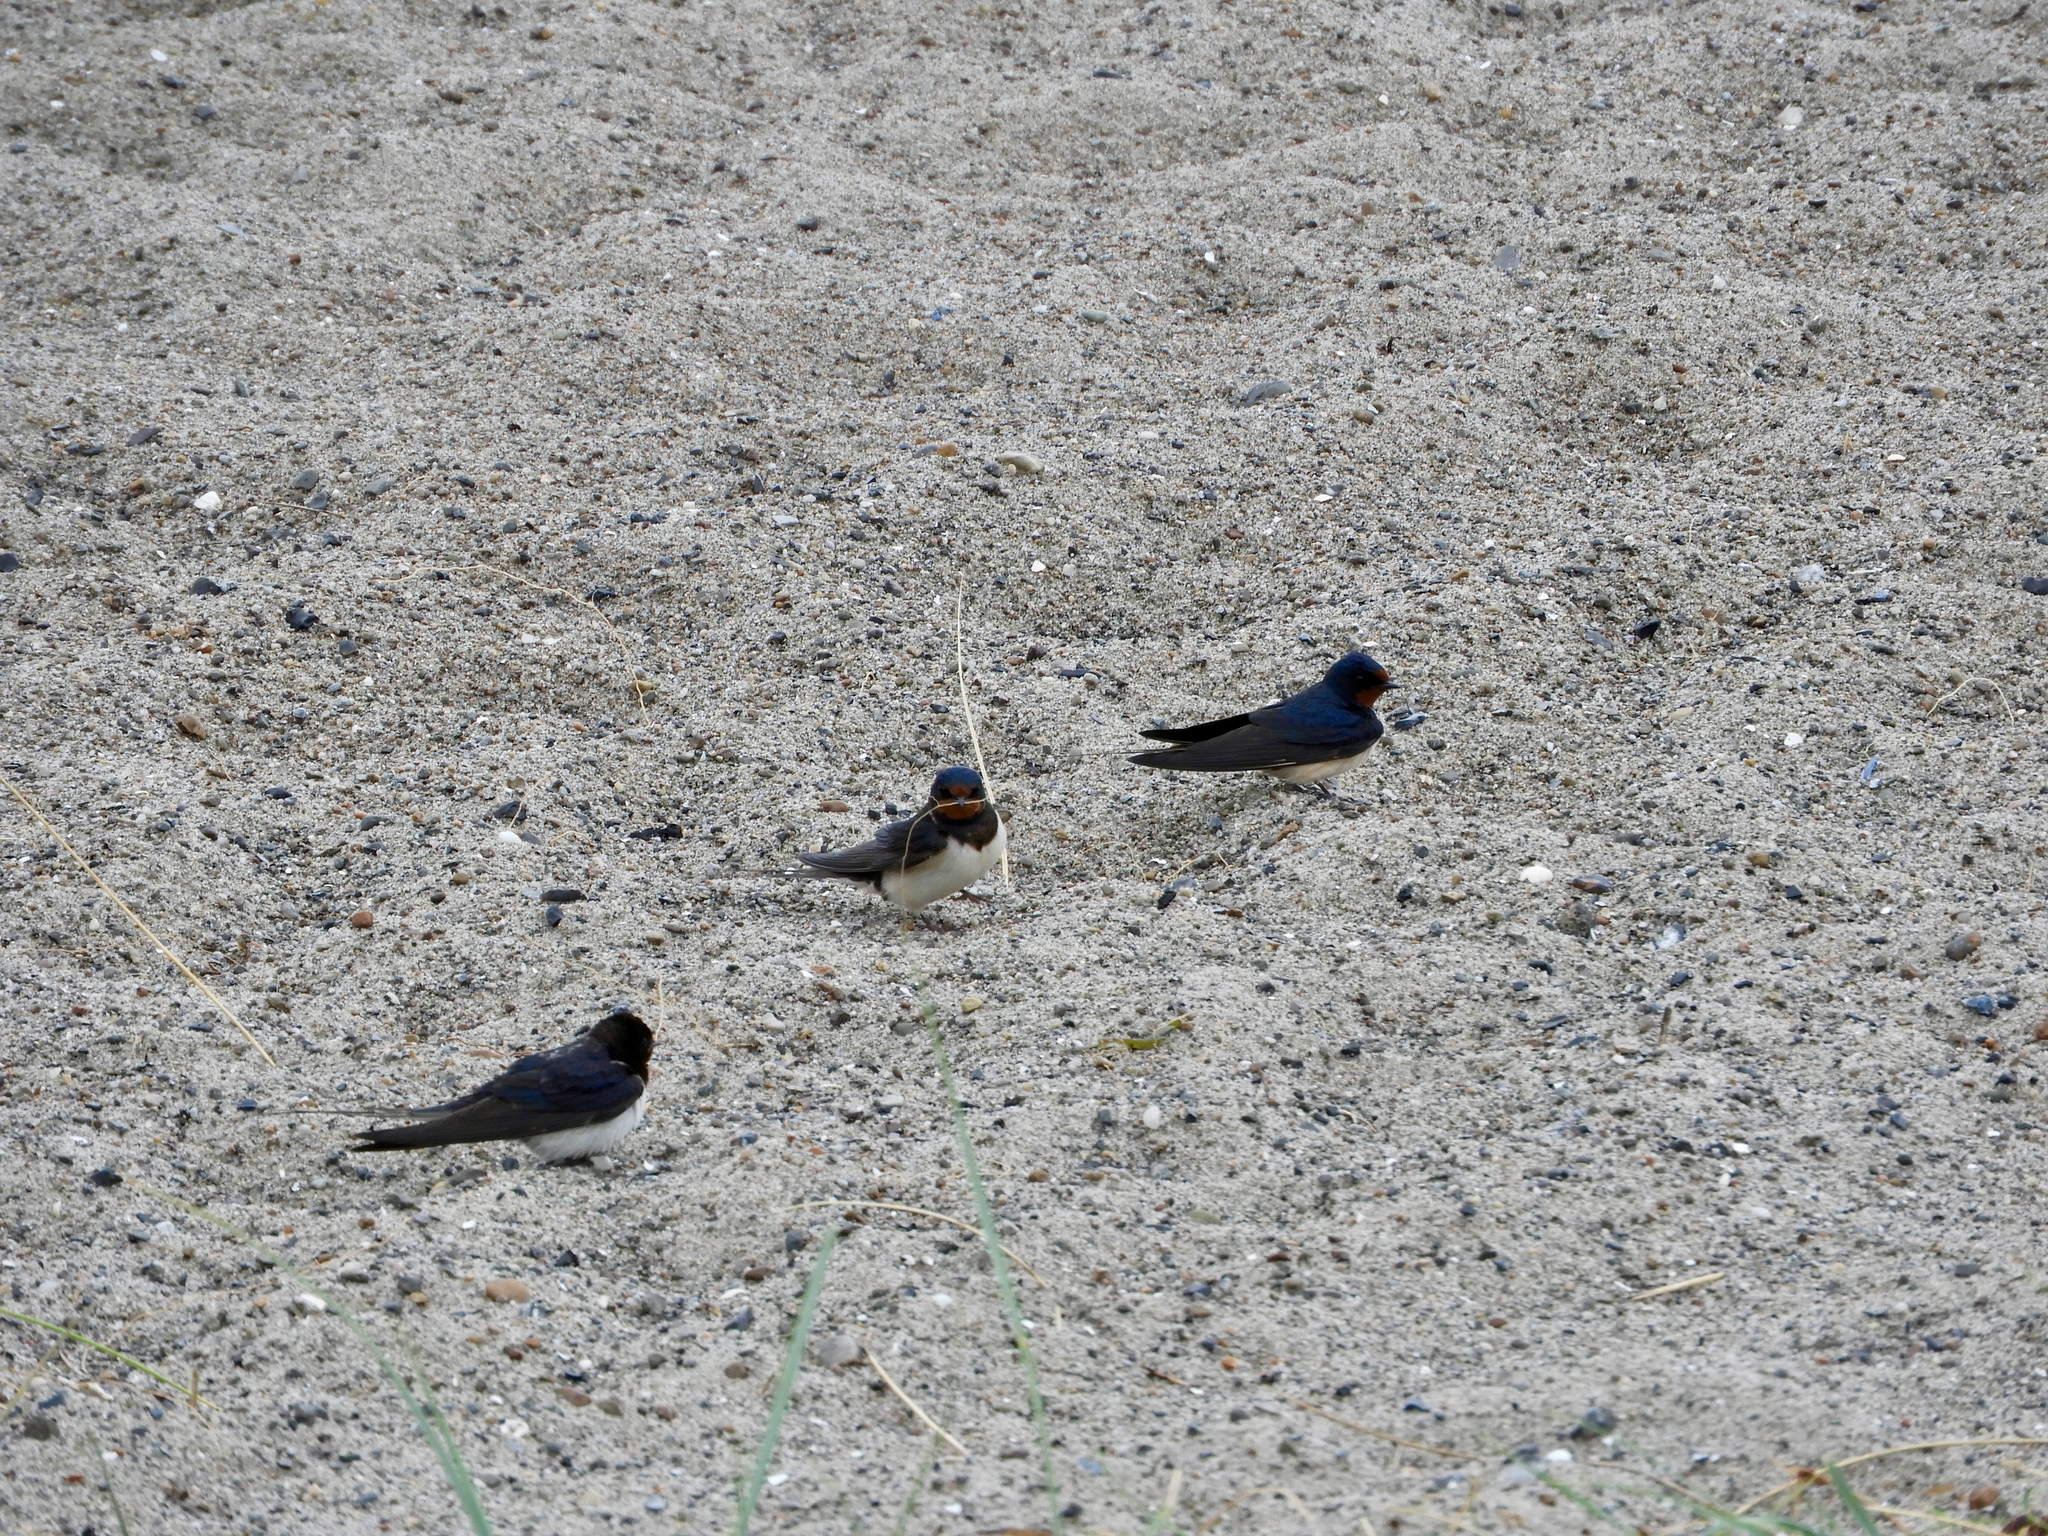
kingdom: Animalia
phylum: Chordata
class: Aves
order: Passeriformes
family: Hirundinidae
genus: Hirundo
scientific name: Hirundo rustica
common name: Barn swallow
